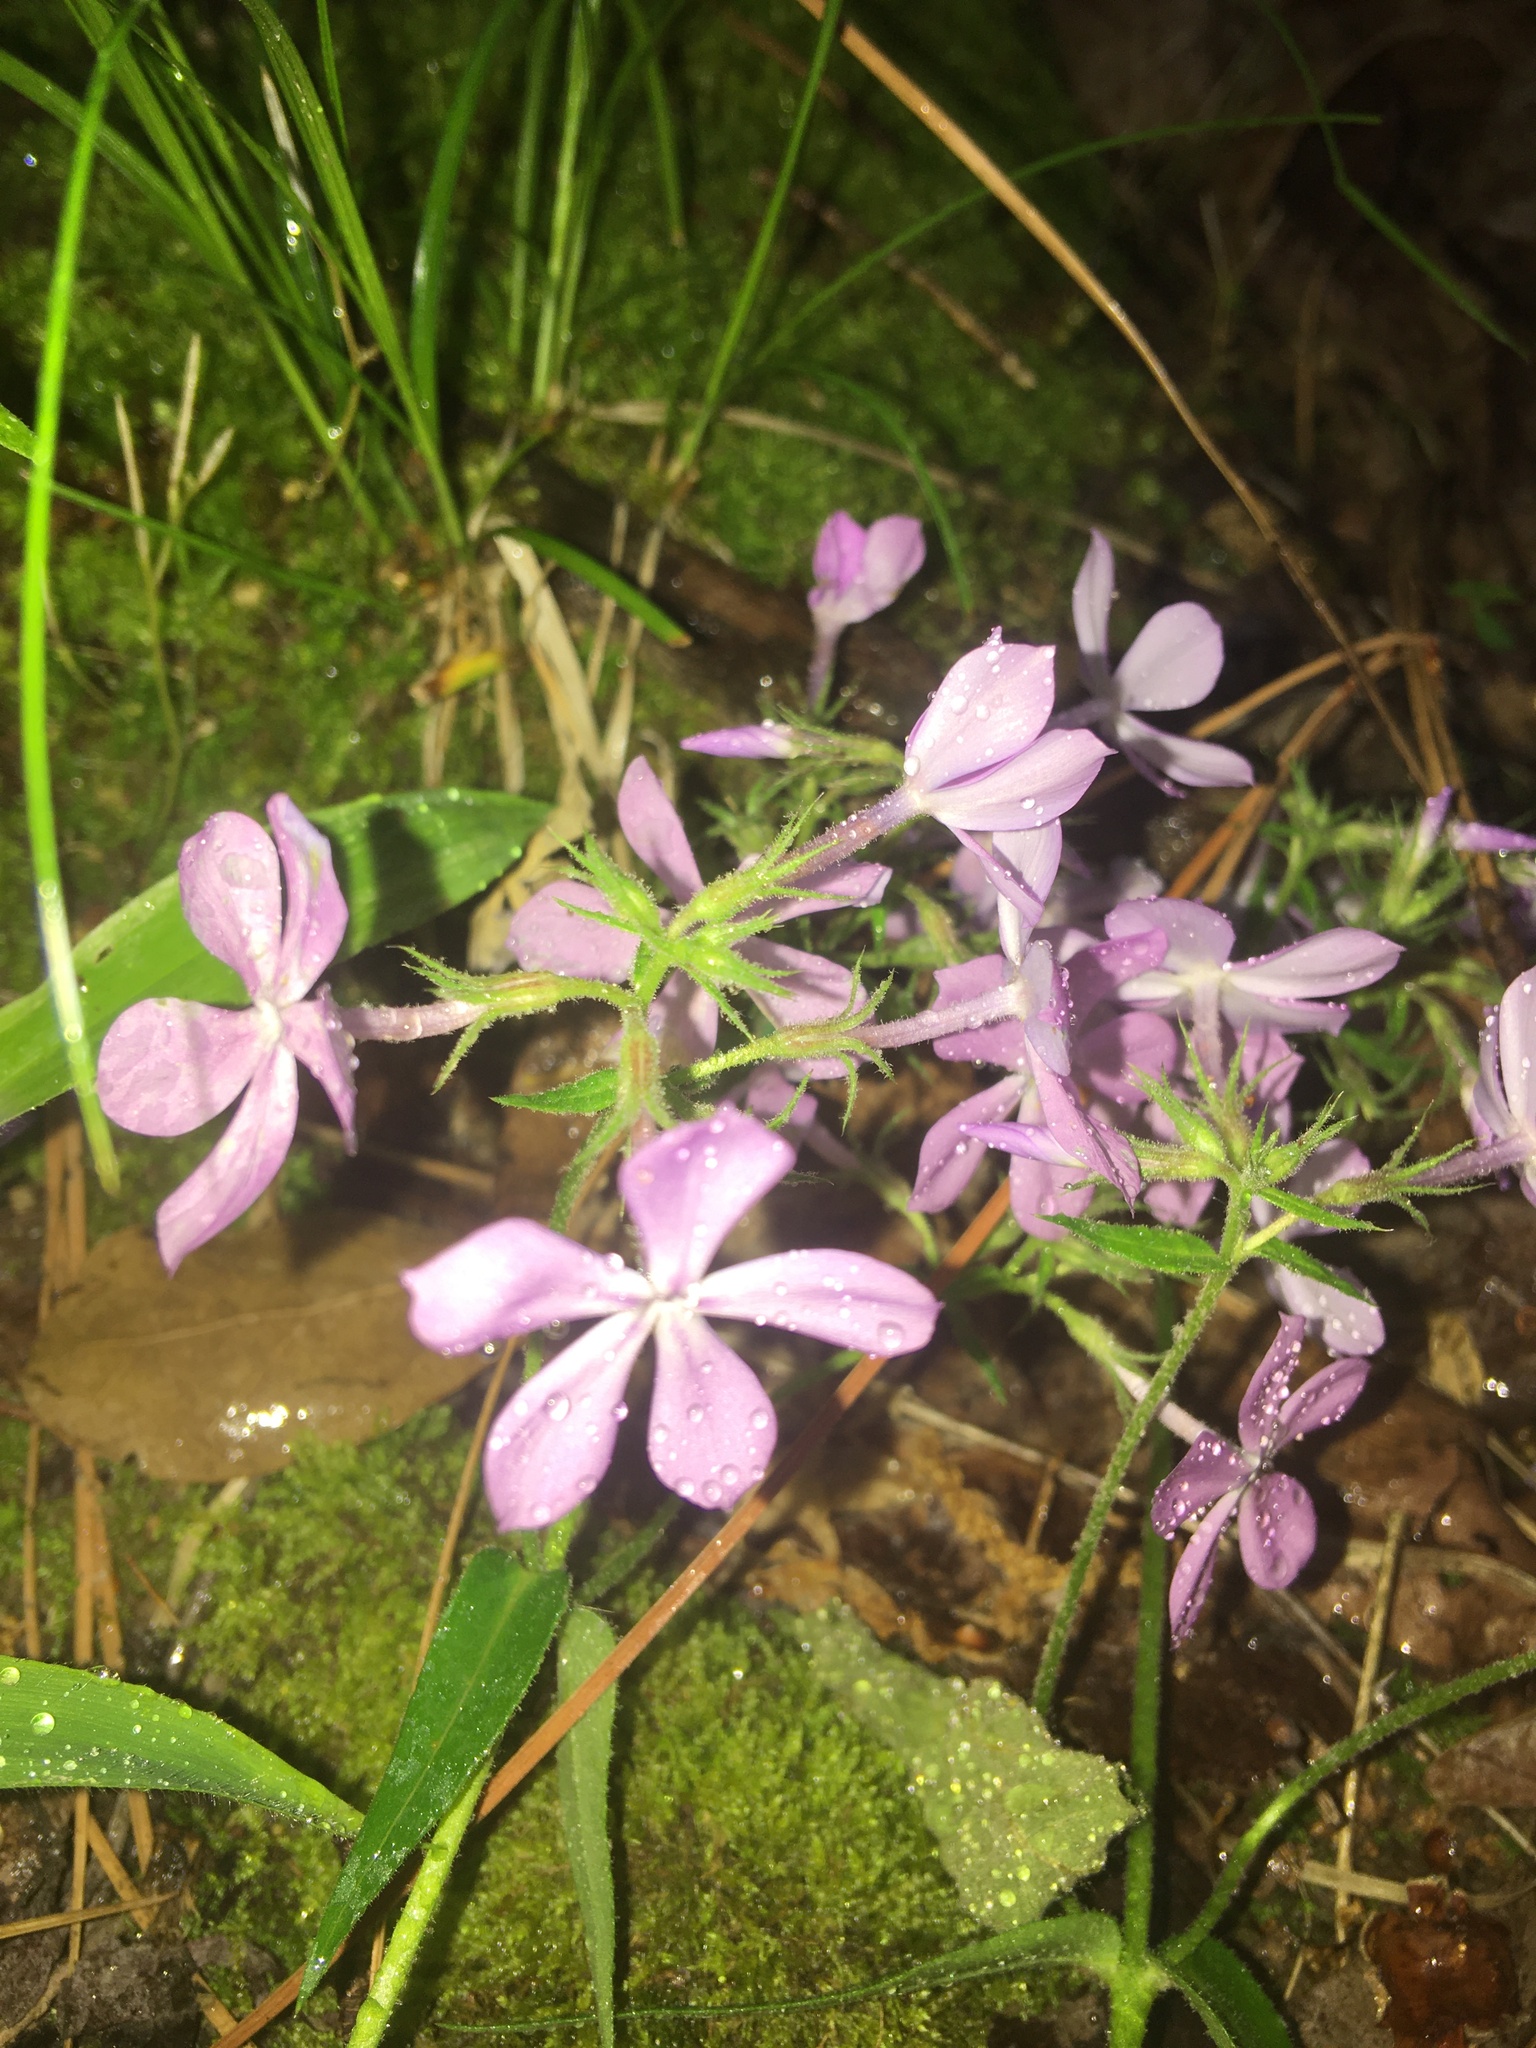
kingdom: Plantae
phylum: Tracheophyta
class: Magnoliopsida
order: Ericales
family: Polemoniaceae
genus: Phlox
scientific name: Phlox pilosa
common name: Prairie phlox
